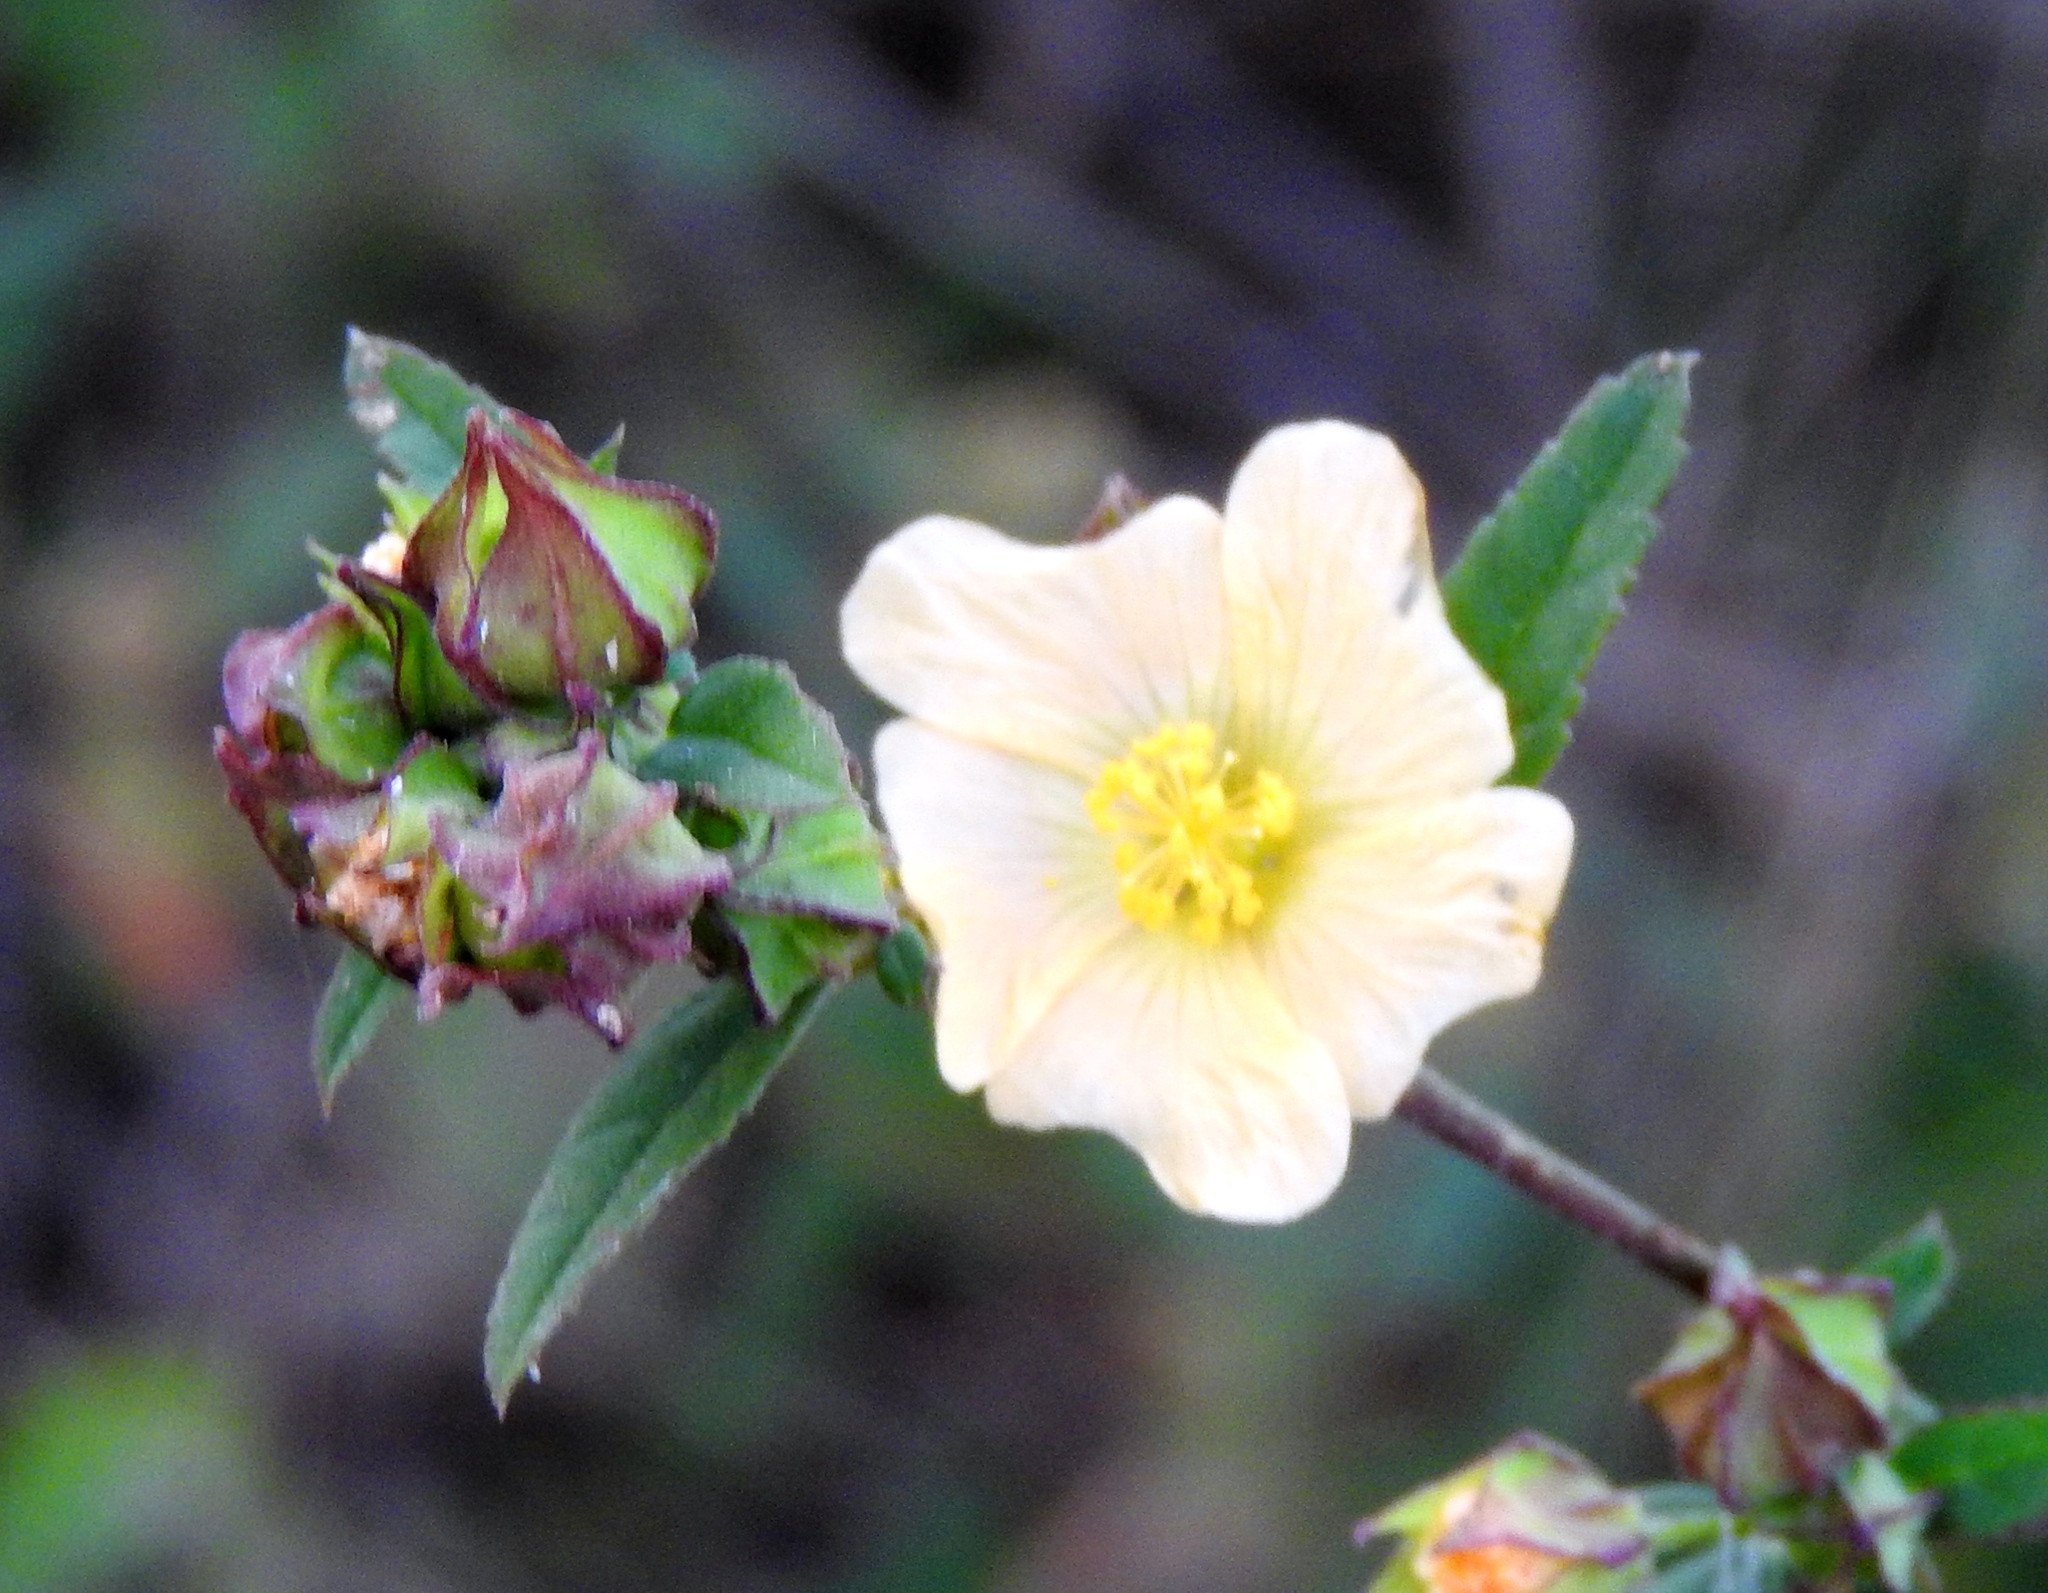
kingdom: Plantae
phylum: Tracheophyta
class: Magnoliopsida
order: Malvales
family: Malvaceae
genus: Sida
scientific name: Sida rhombifolia
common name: Queensland-hemp
